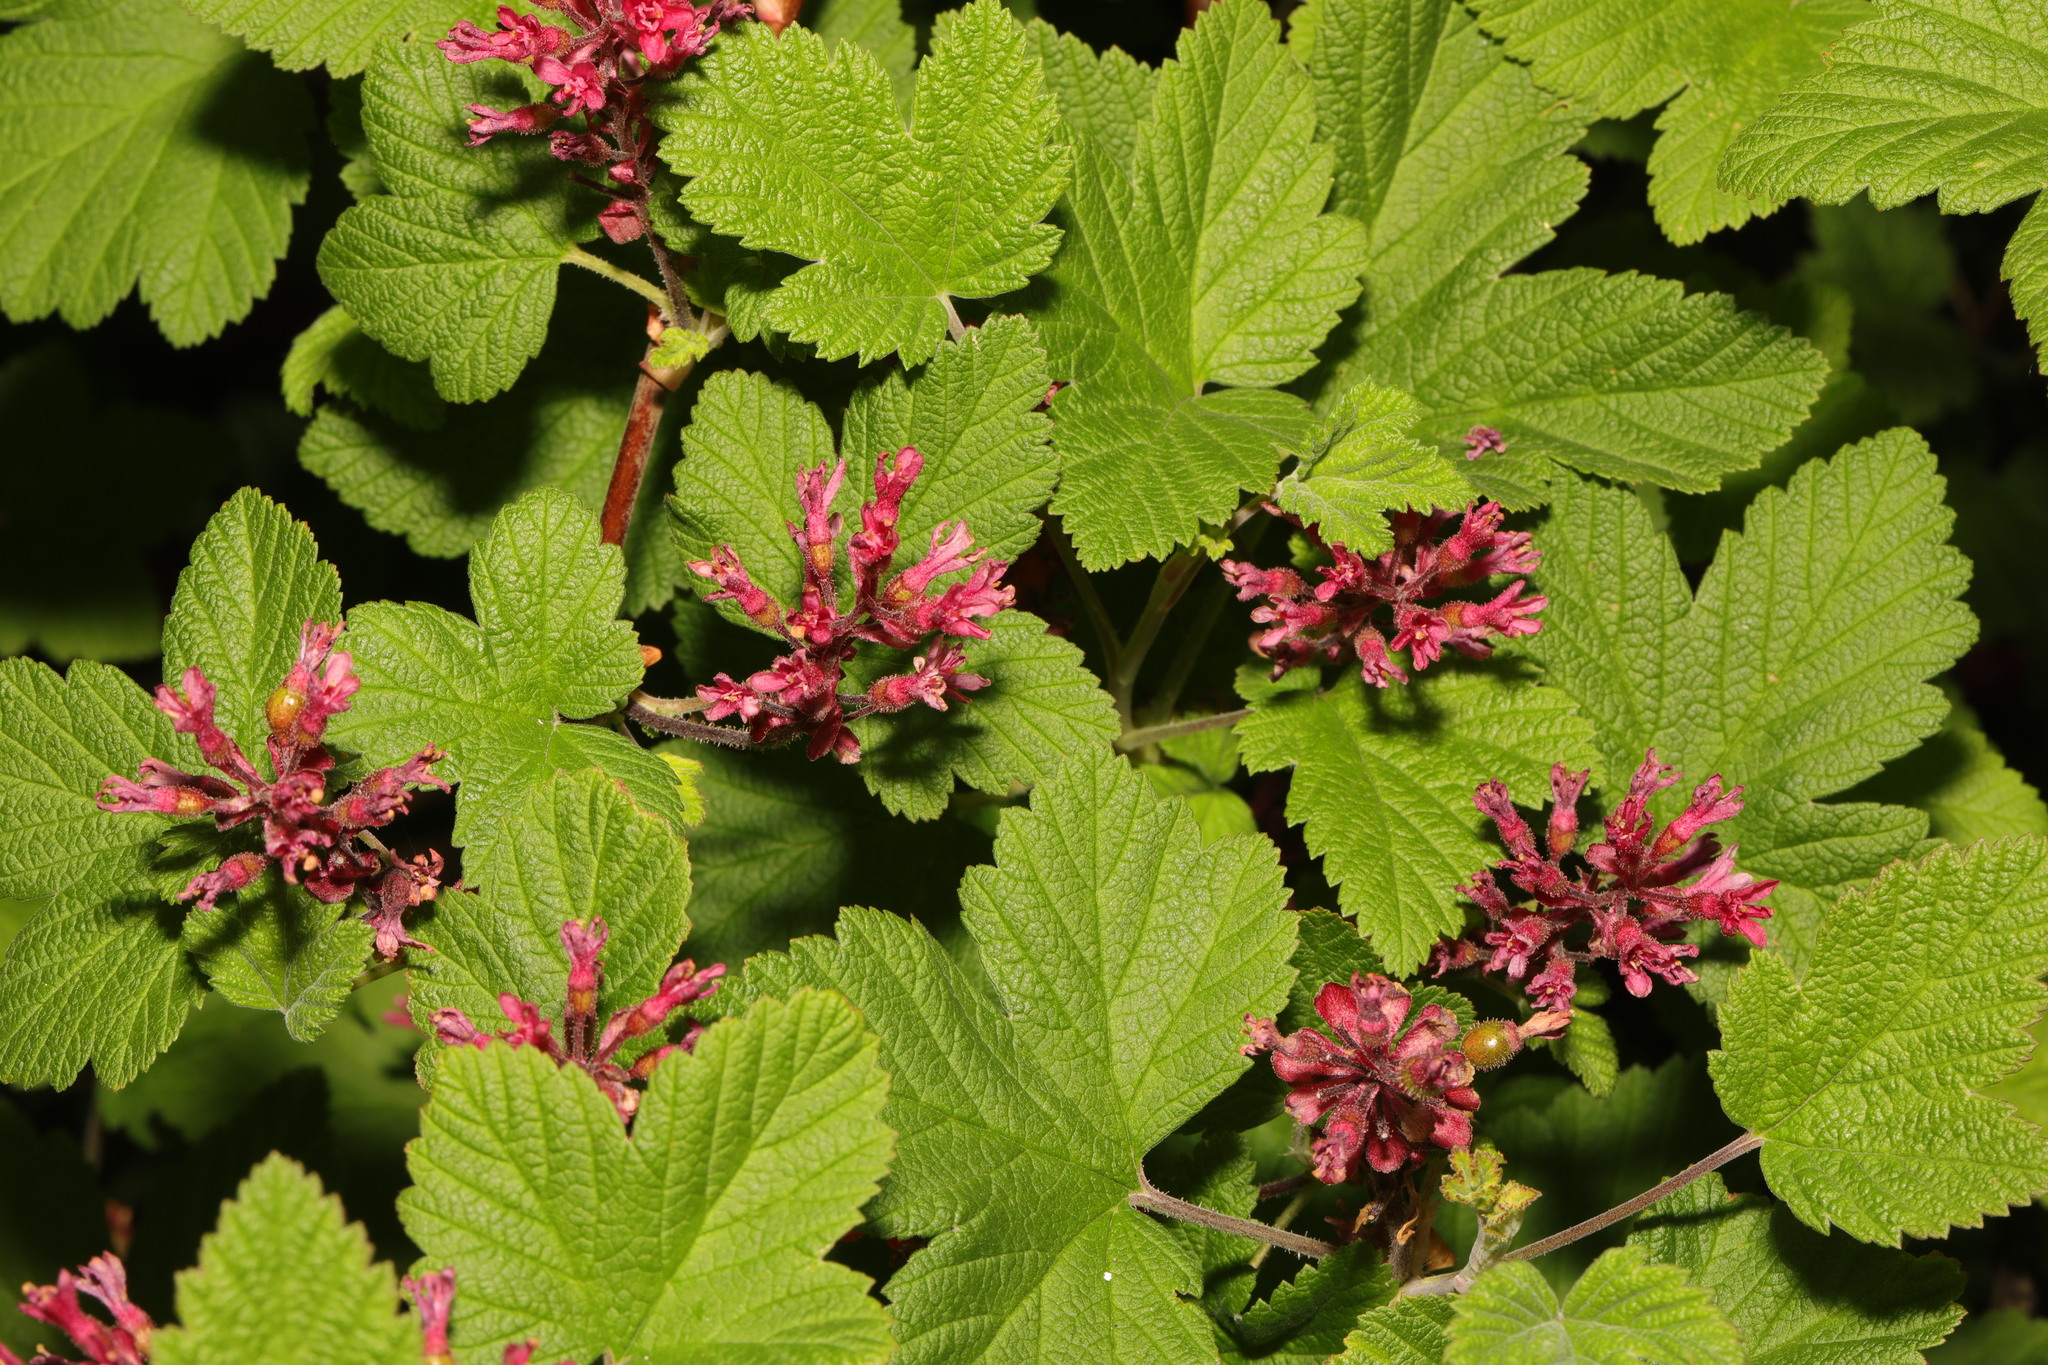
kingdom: Plantae
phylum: Tracheophyta
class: Magnoliopsida
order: Saxifragales
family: Grossulariaceae
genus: Ribes
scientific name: Ribes sanguineum
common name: Flowering currant
